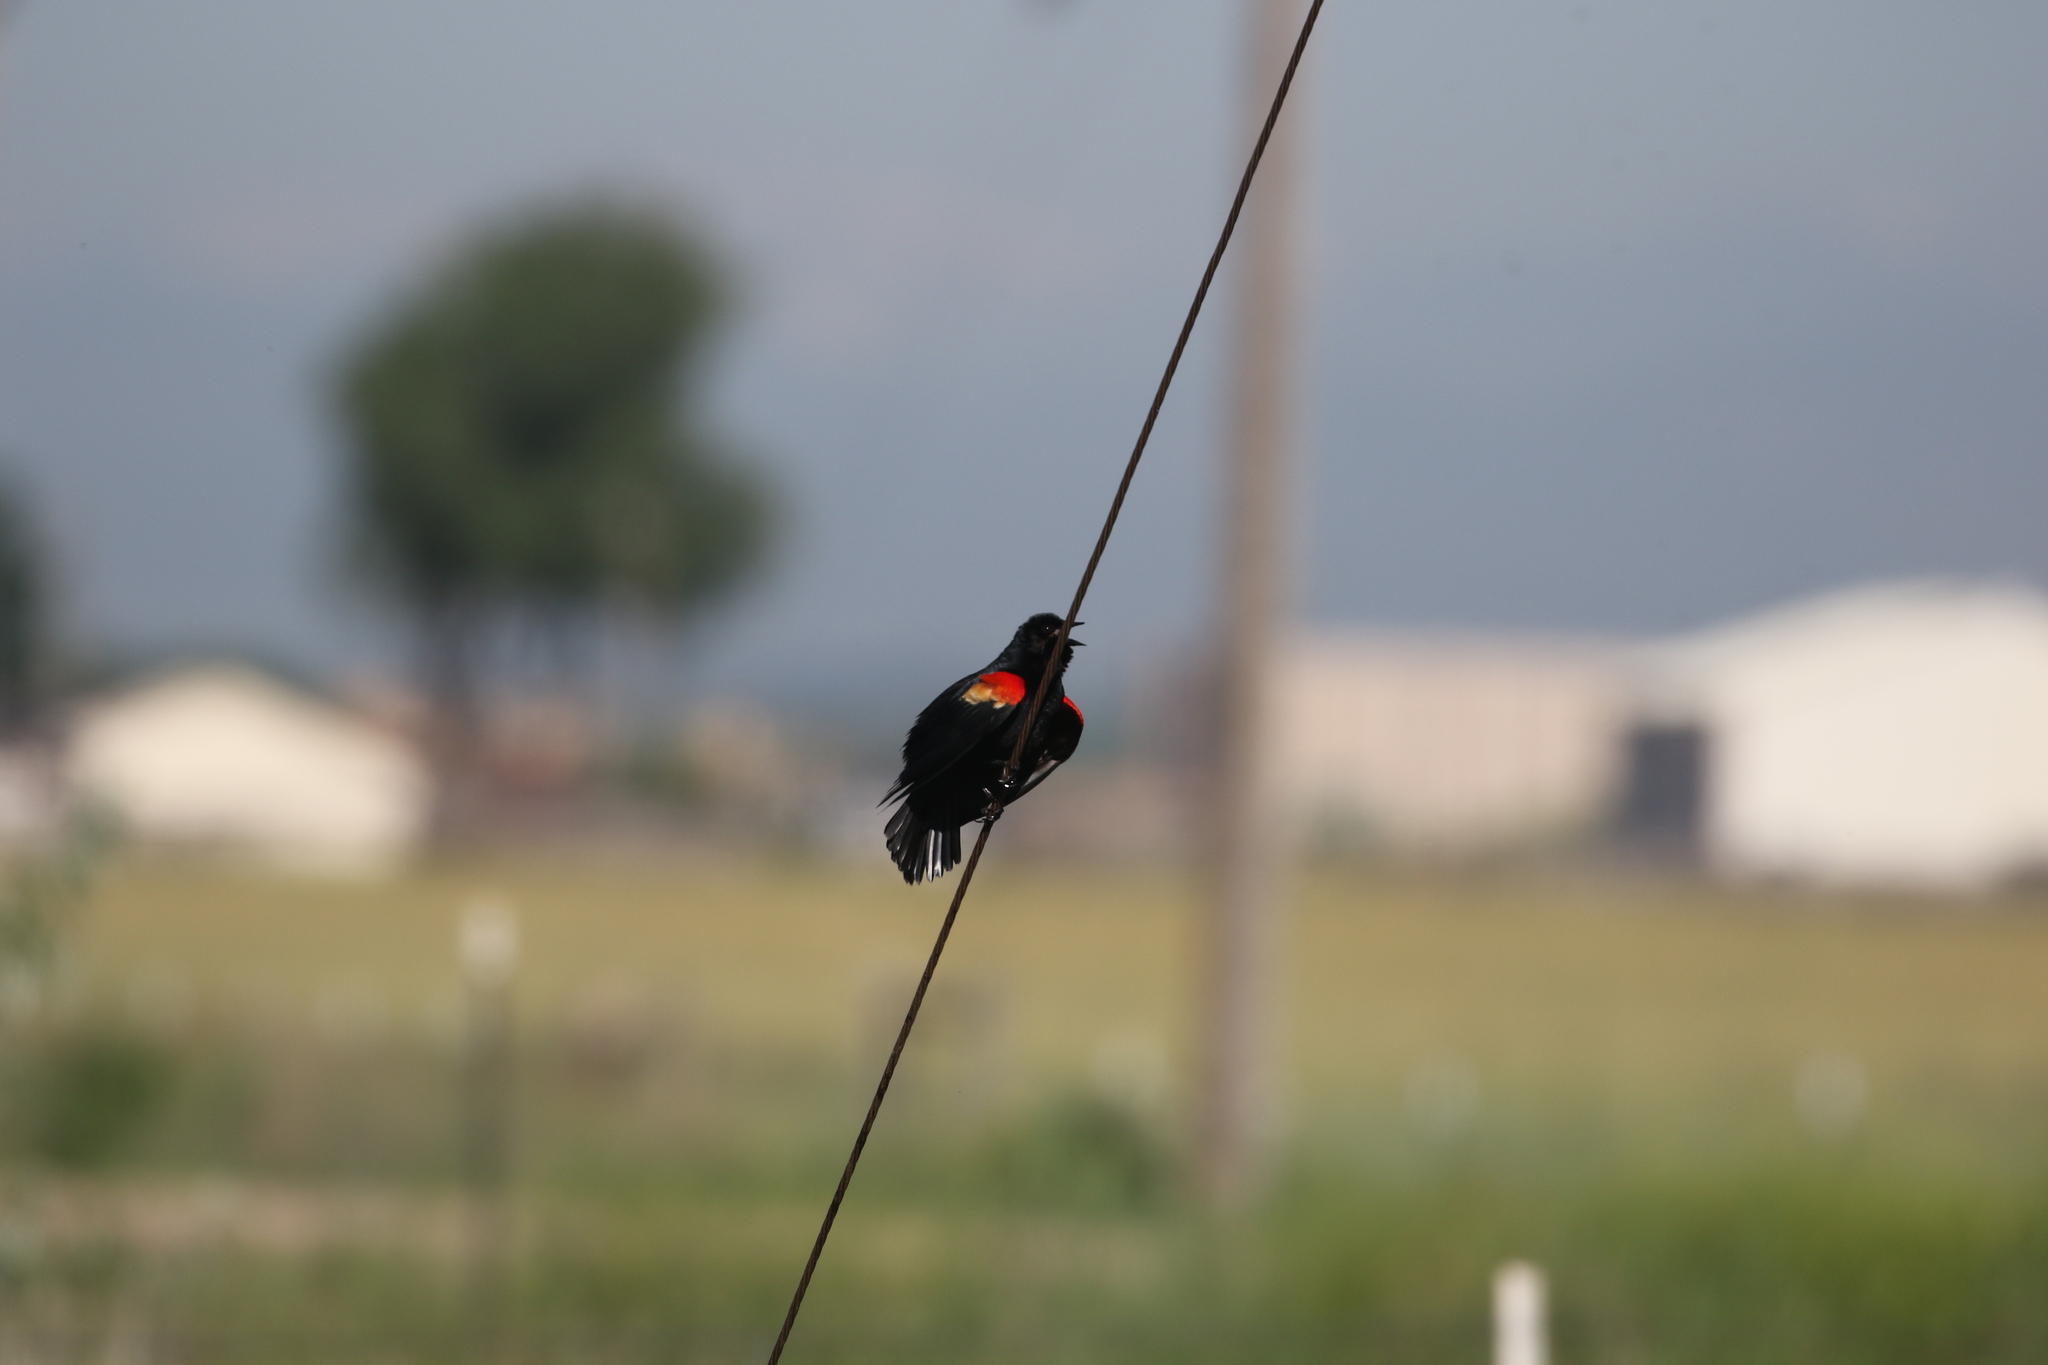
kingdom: Animalia
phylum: Chordata
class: Aves
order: Passeriformes
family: Icteridae
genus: Agelaius
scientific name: Agelaius phoeniceus
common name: Red-winged blackbird
